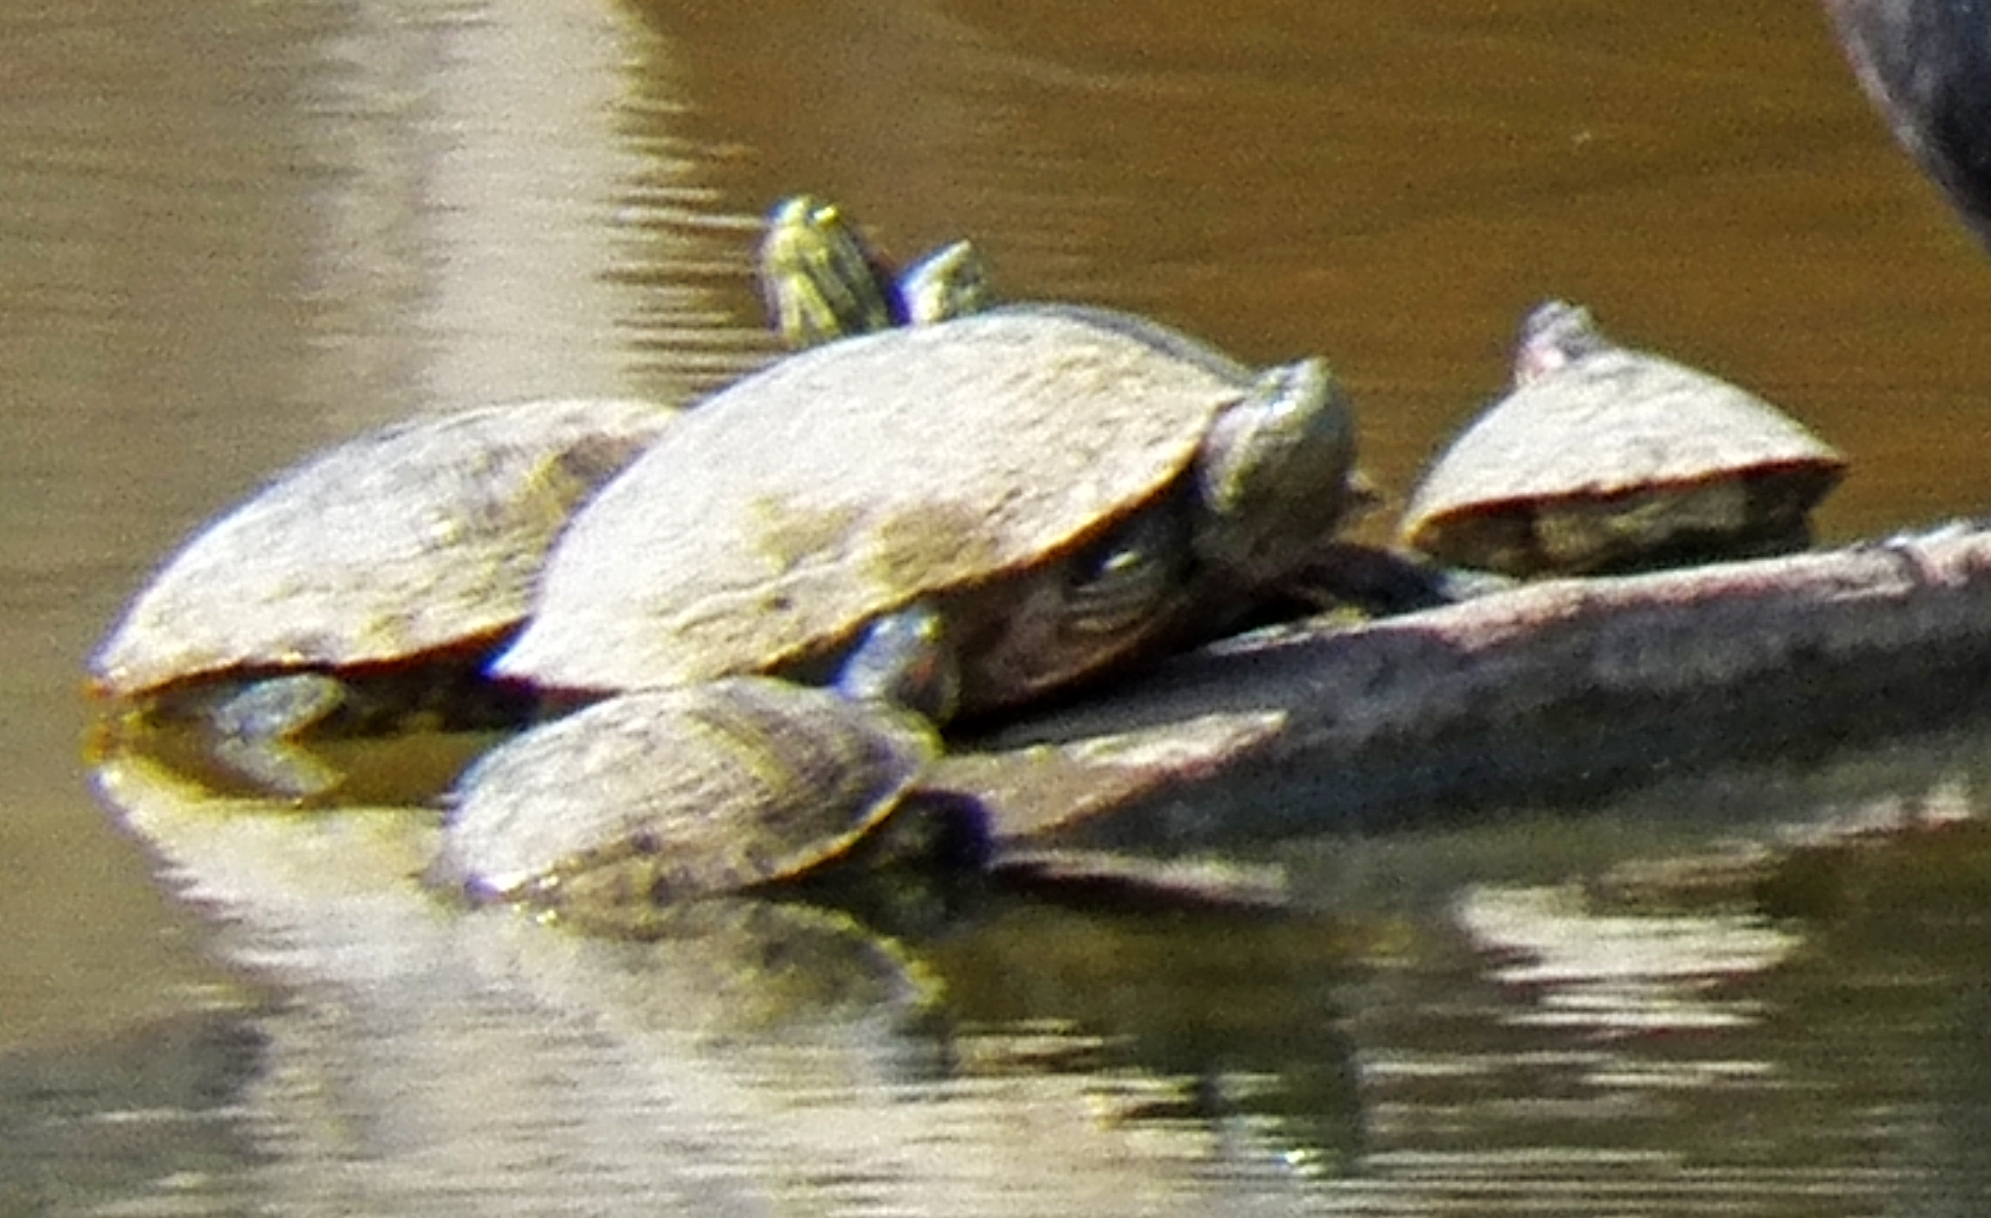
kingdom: Animalia
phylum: Chordata
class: Testudines
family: Emydidae
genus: Trachemys
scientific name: Trachemys scripta
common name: Slider
